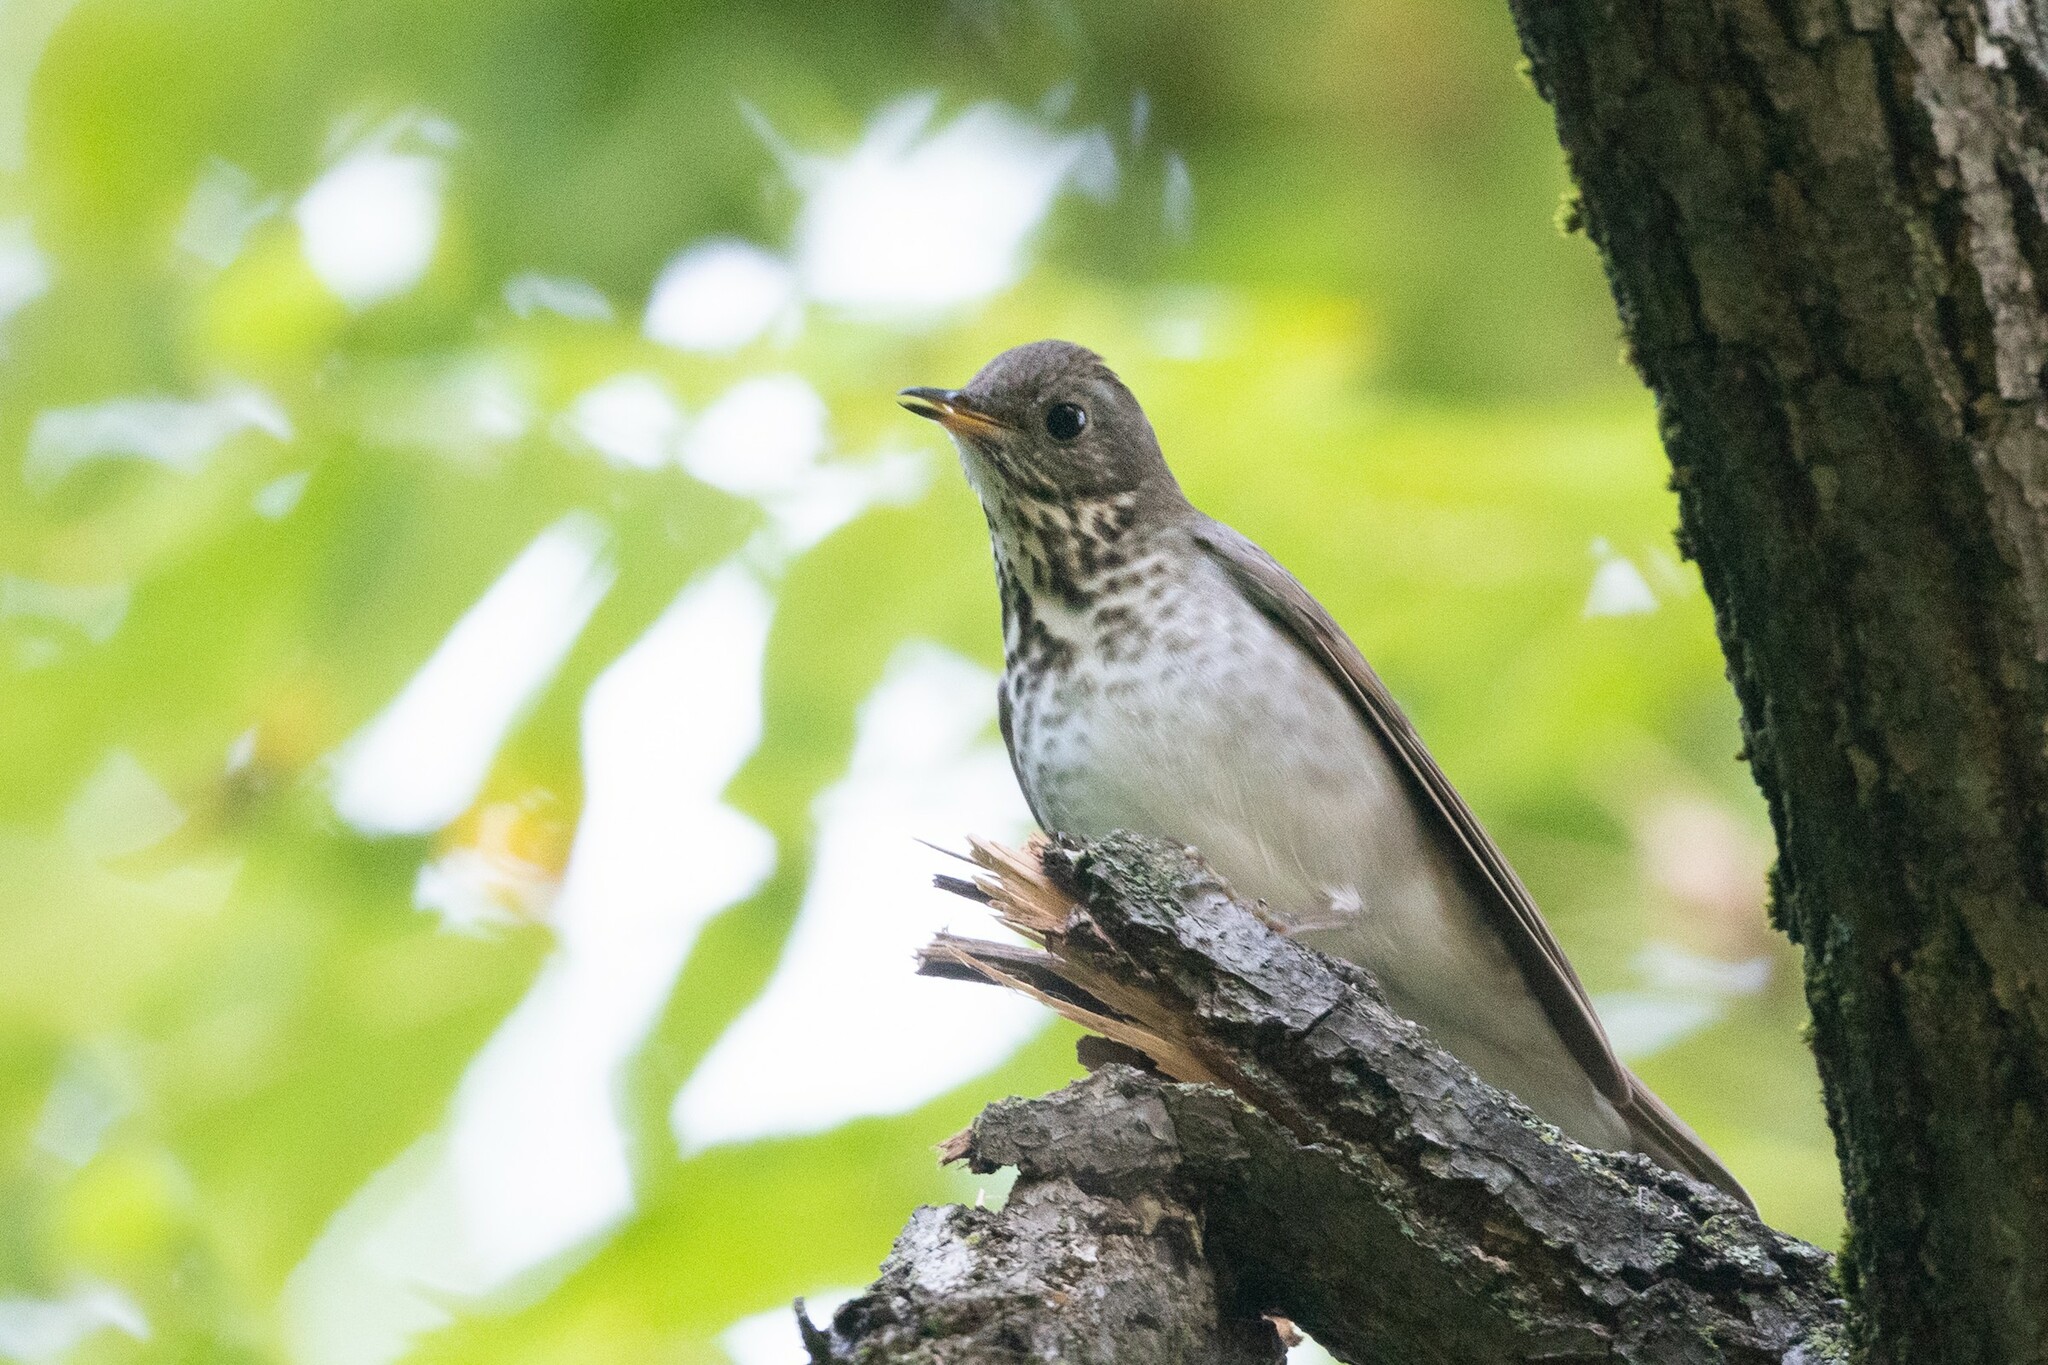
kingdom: Animalia
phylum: Chordata
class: Aves
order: Passeriformes
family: Turdidae
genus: Catharus
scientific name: Catharus minimus
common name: Grey-cheeked thrush
